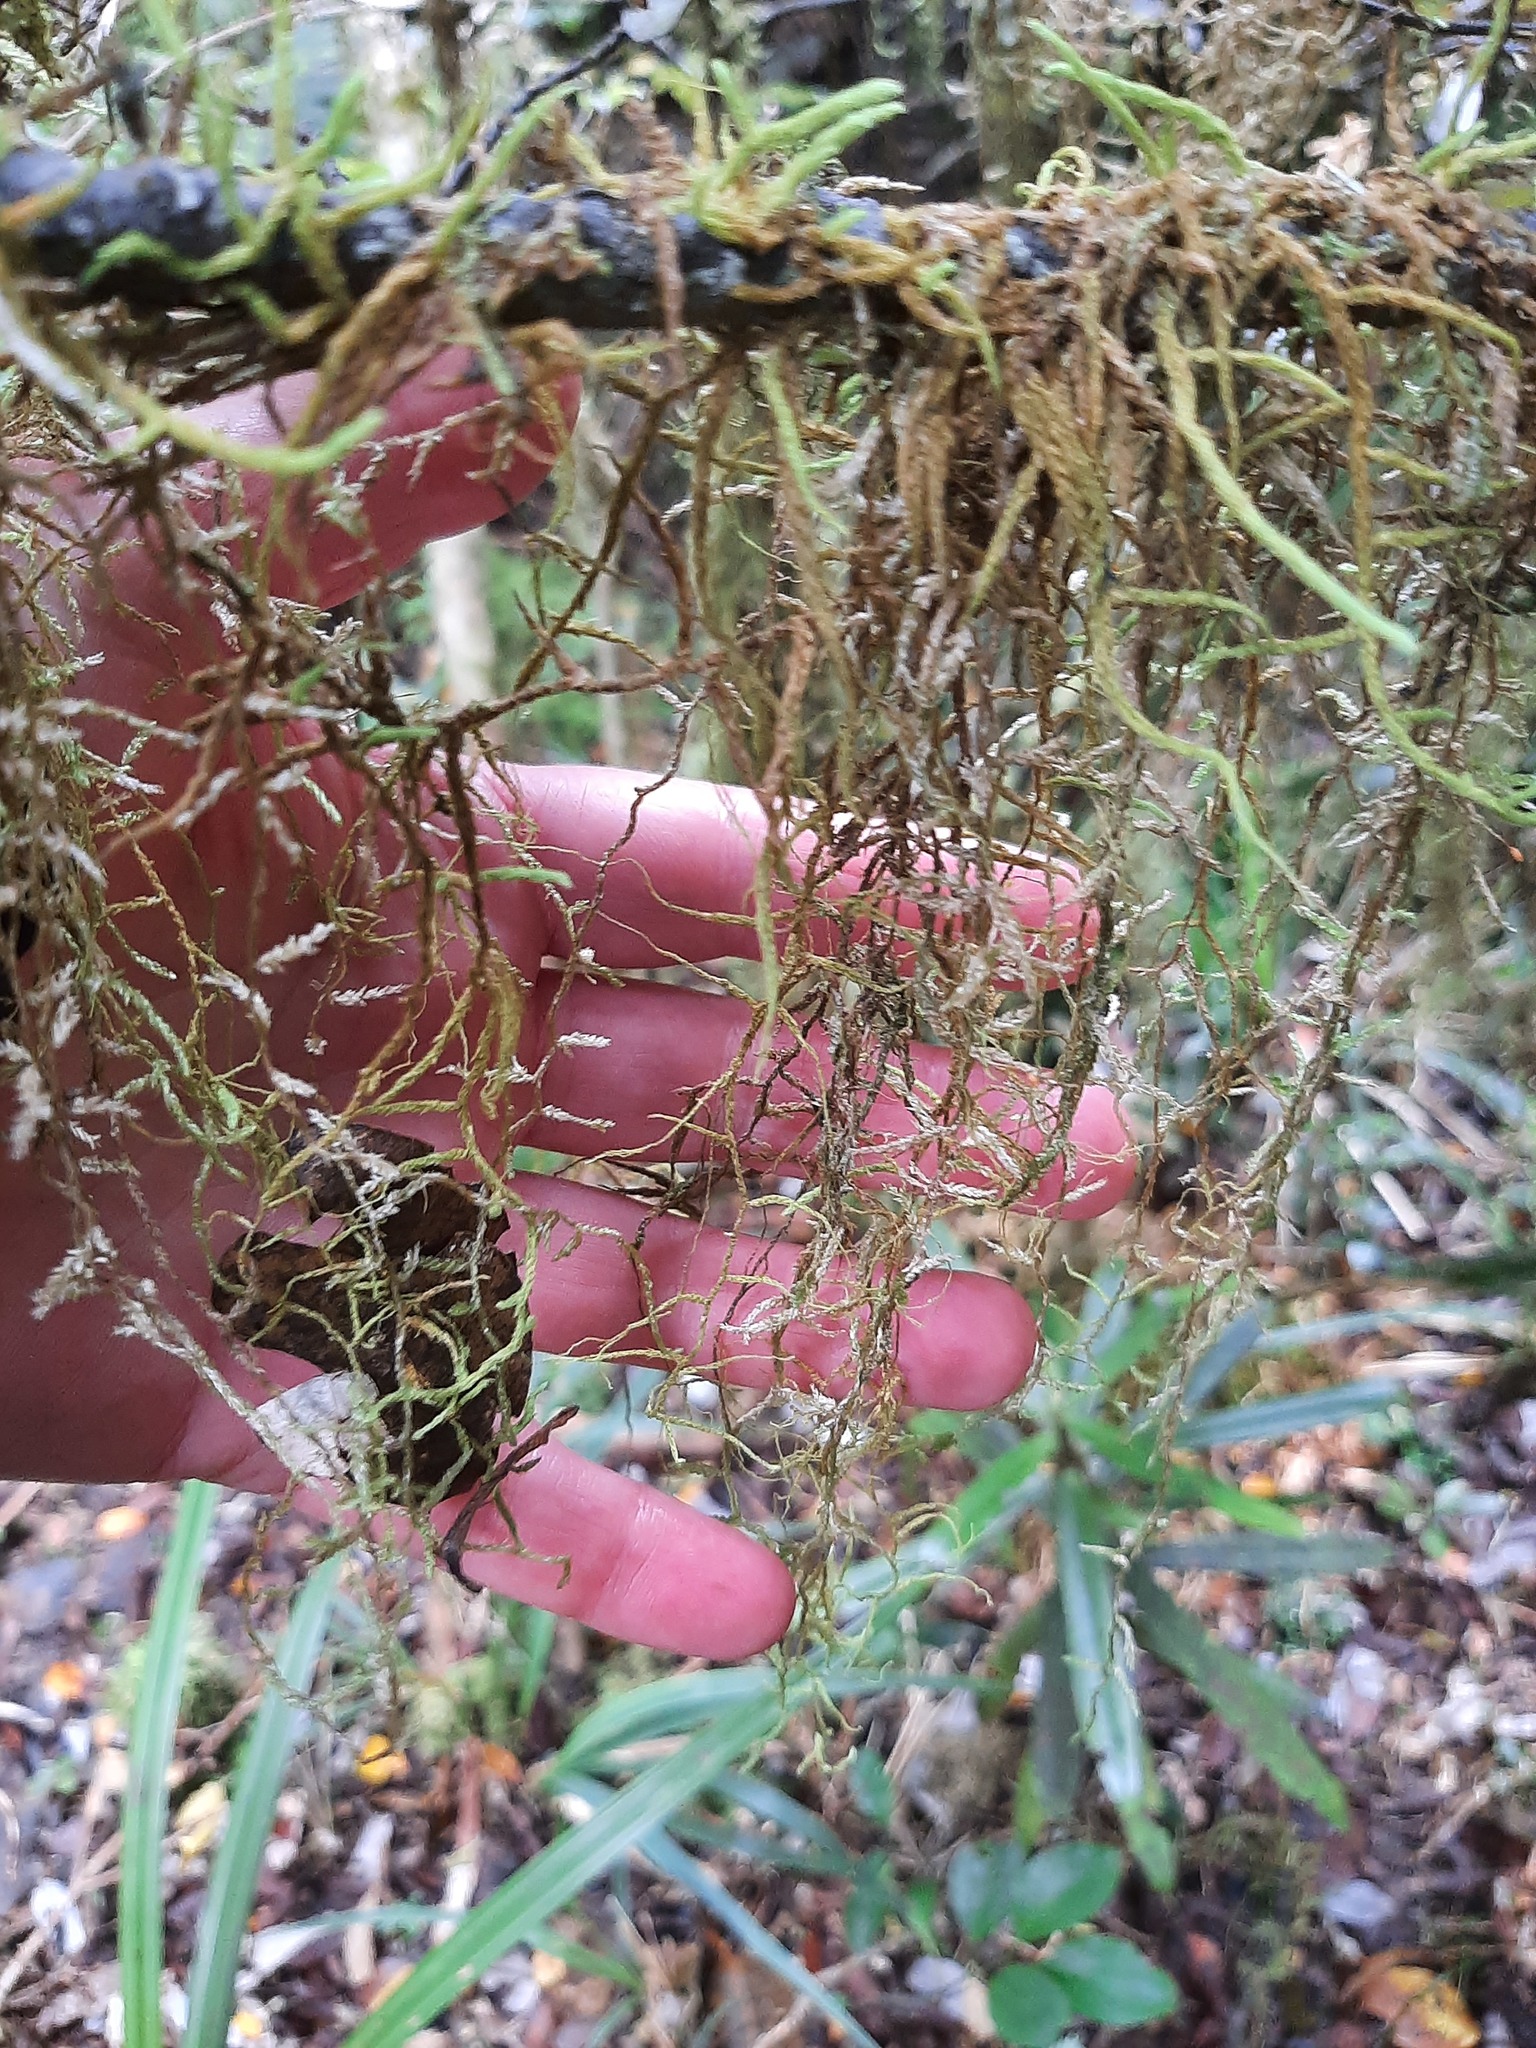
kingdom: Plantae
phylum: Bryophyta
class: Bryopsida
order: Hypnales
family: Lembophyllaceae
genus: Weymouthia
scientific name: Weymouthia mollis
